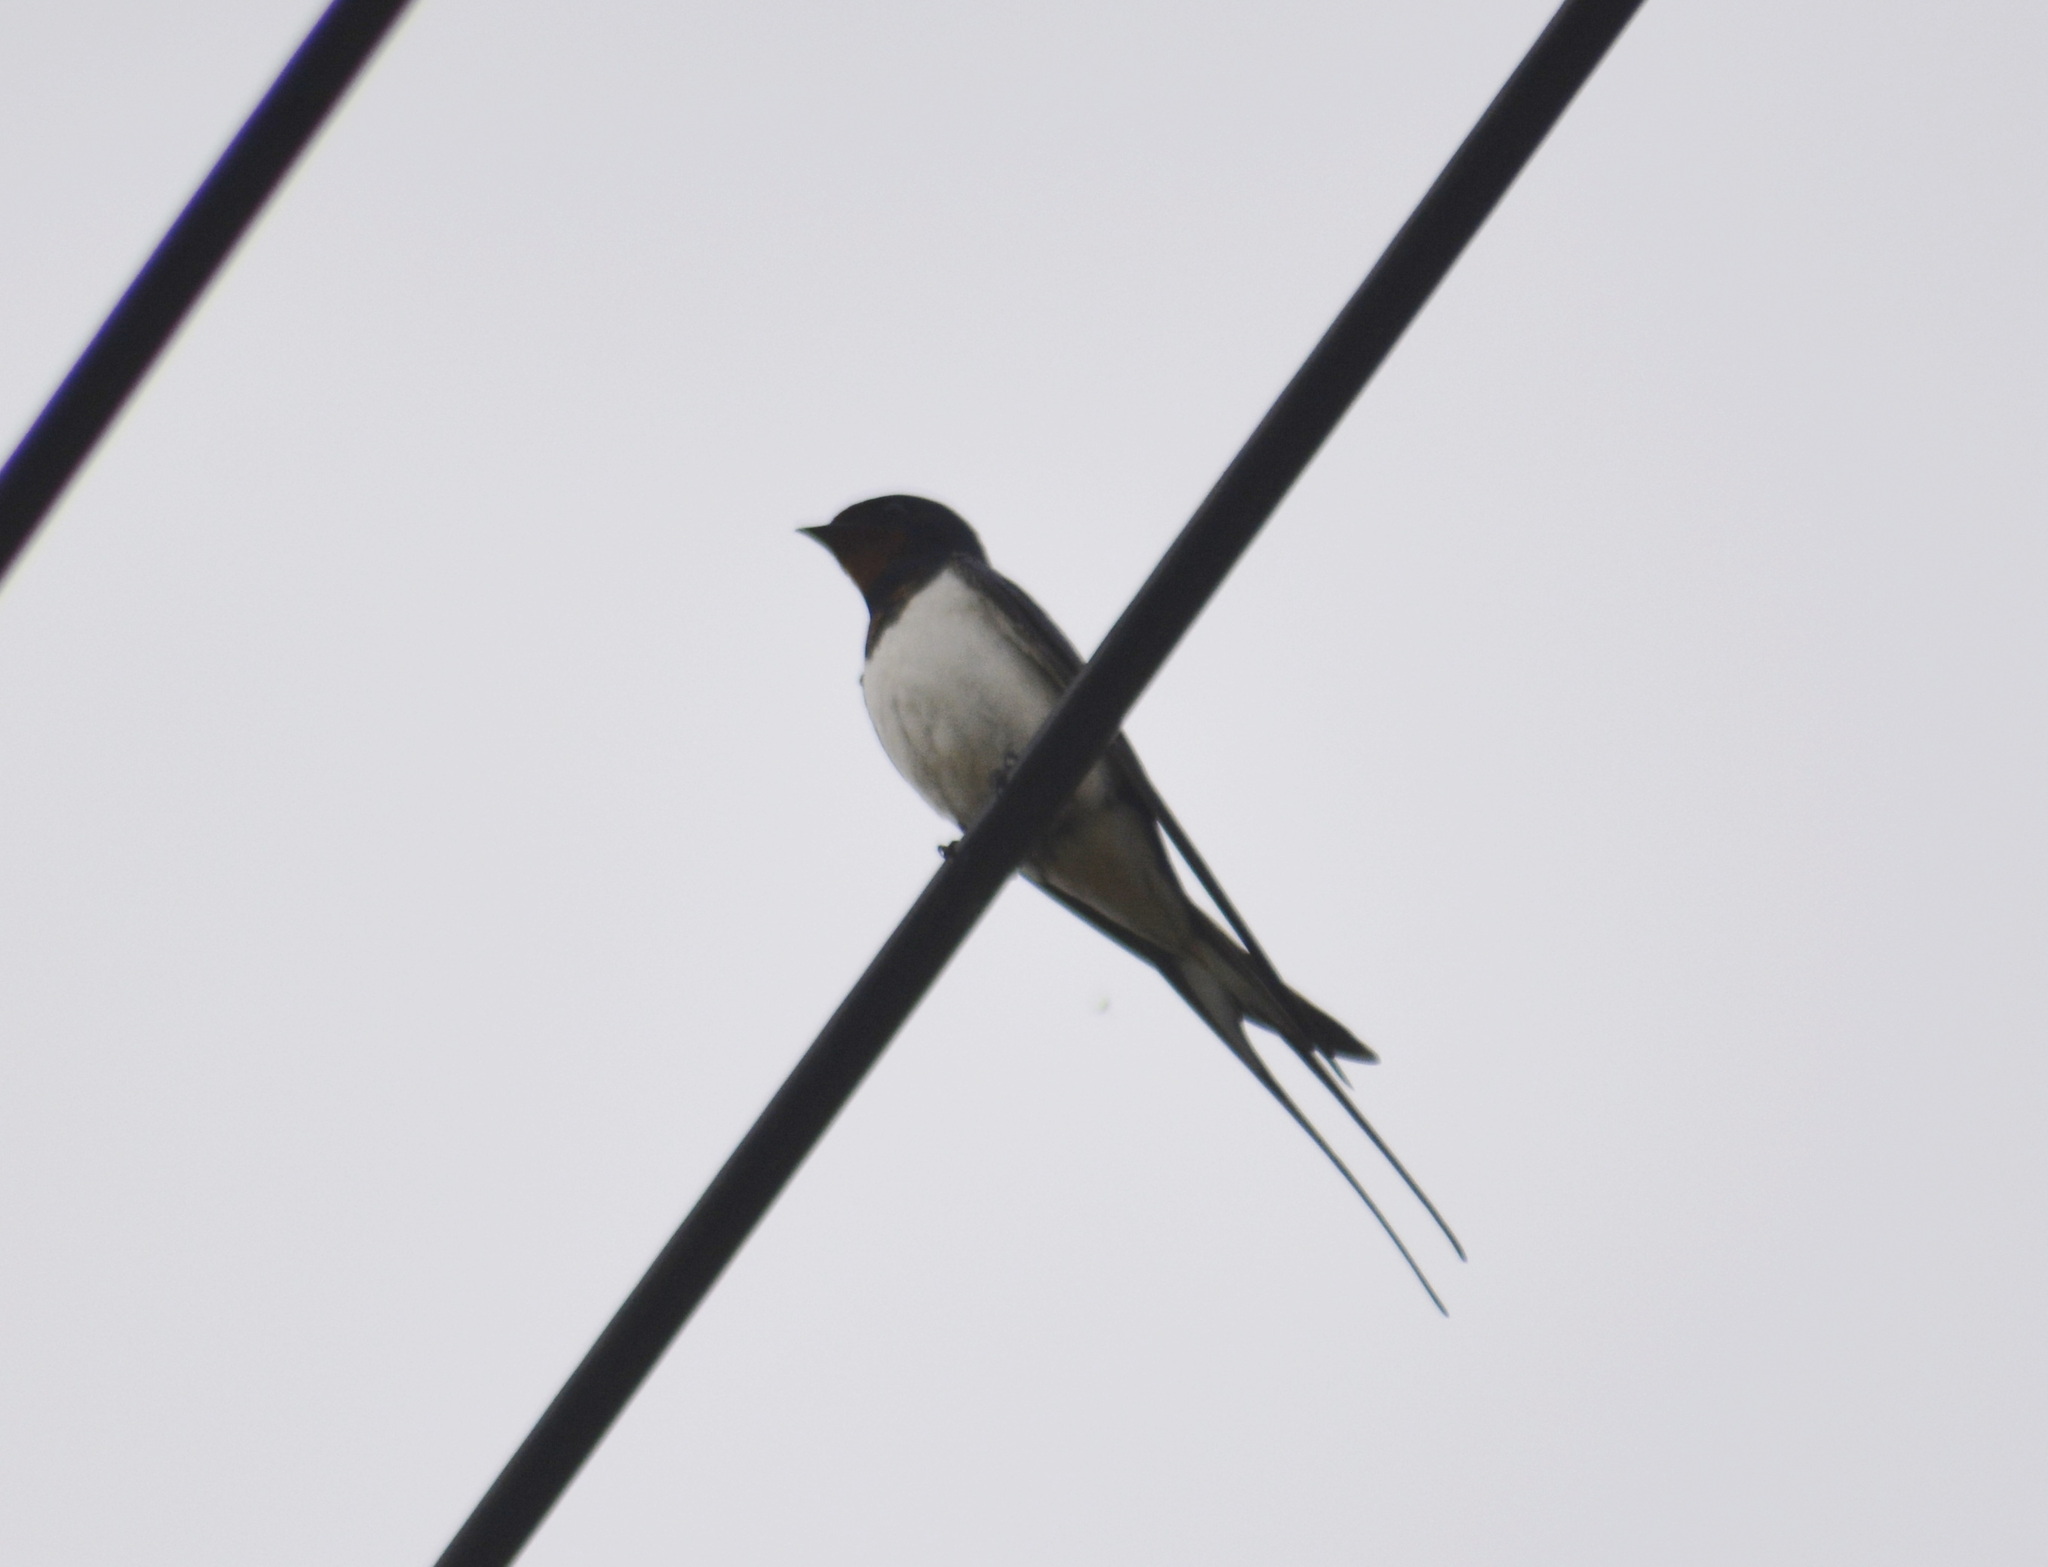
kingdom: Animalia
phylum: Chordata
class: Aves
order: Passeriformes
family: Hirundinidae
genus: Hirundo
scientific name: Hirundo rustica
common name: Barn swallow
